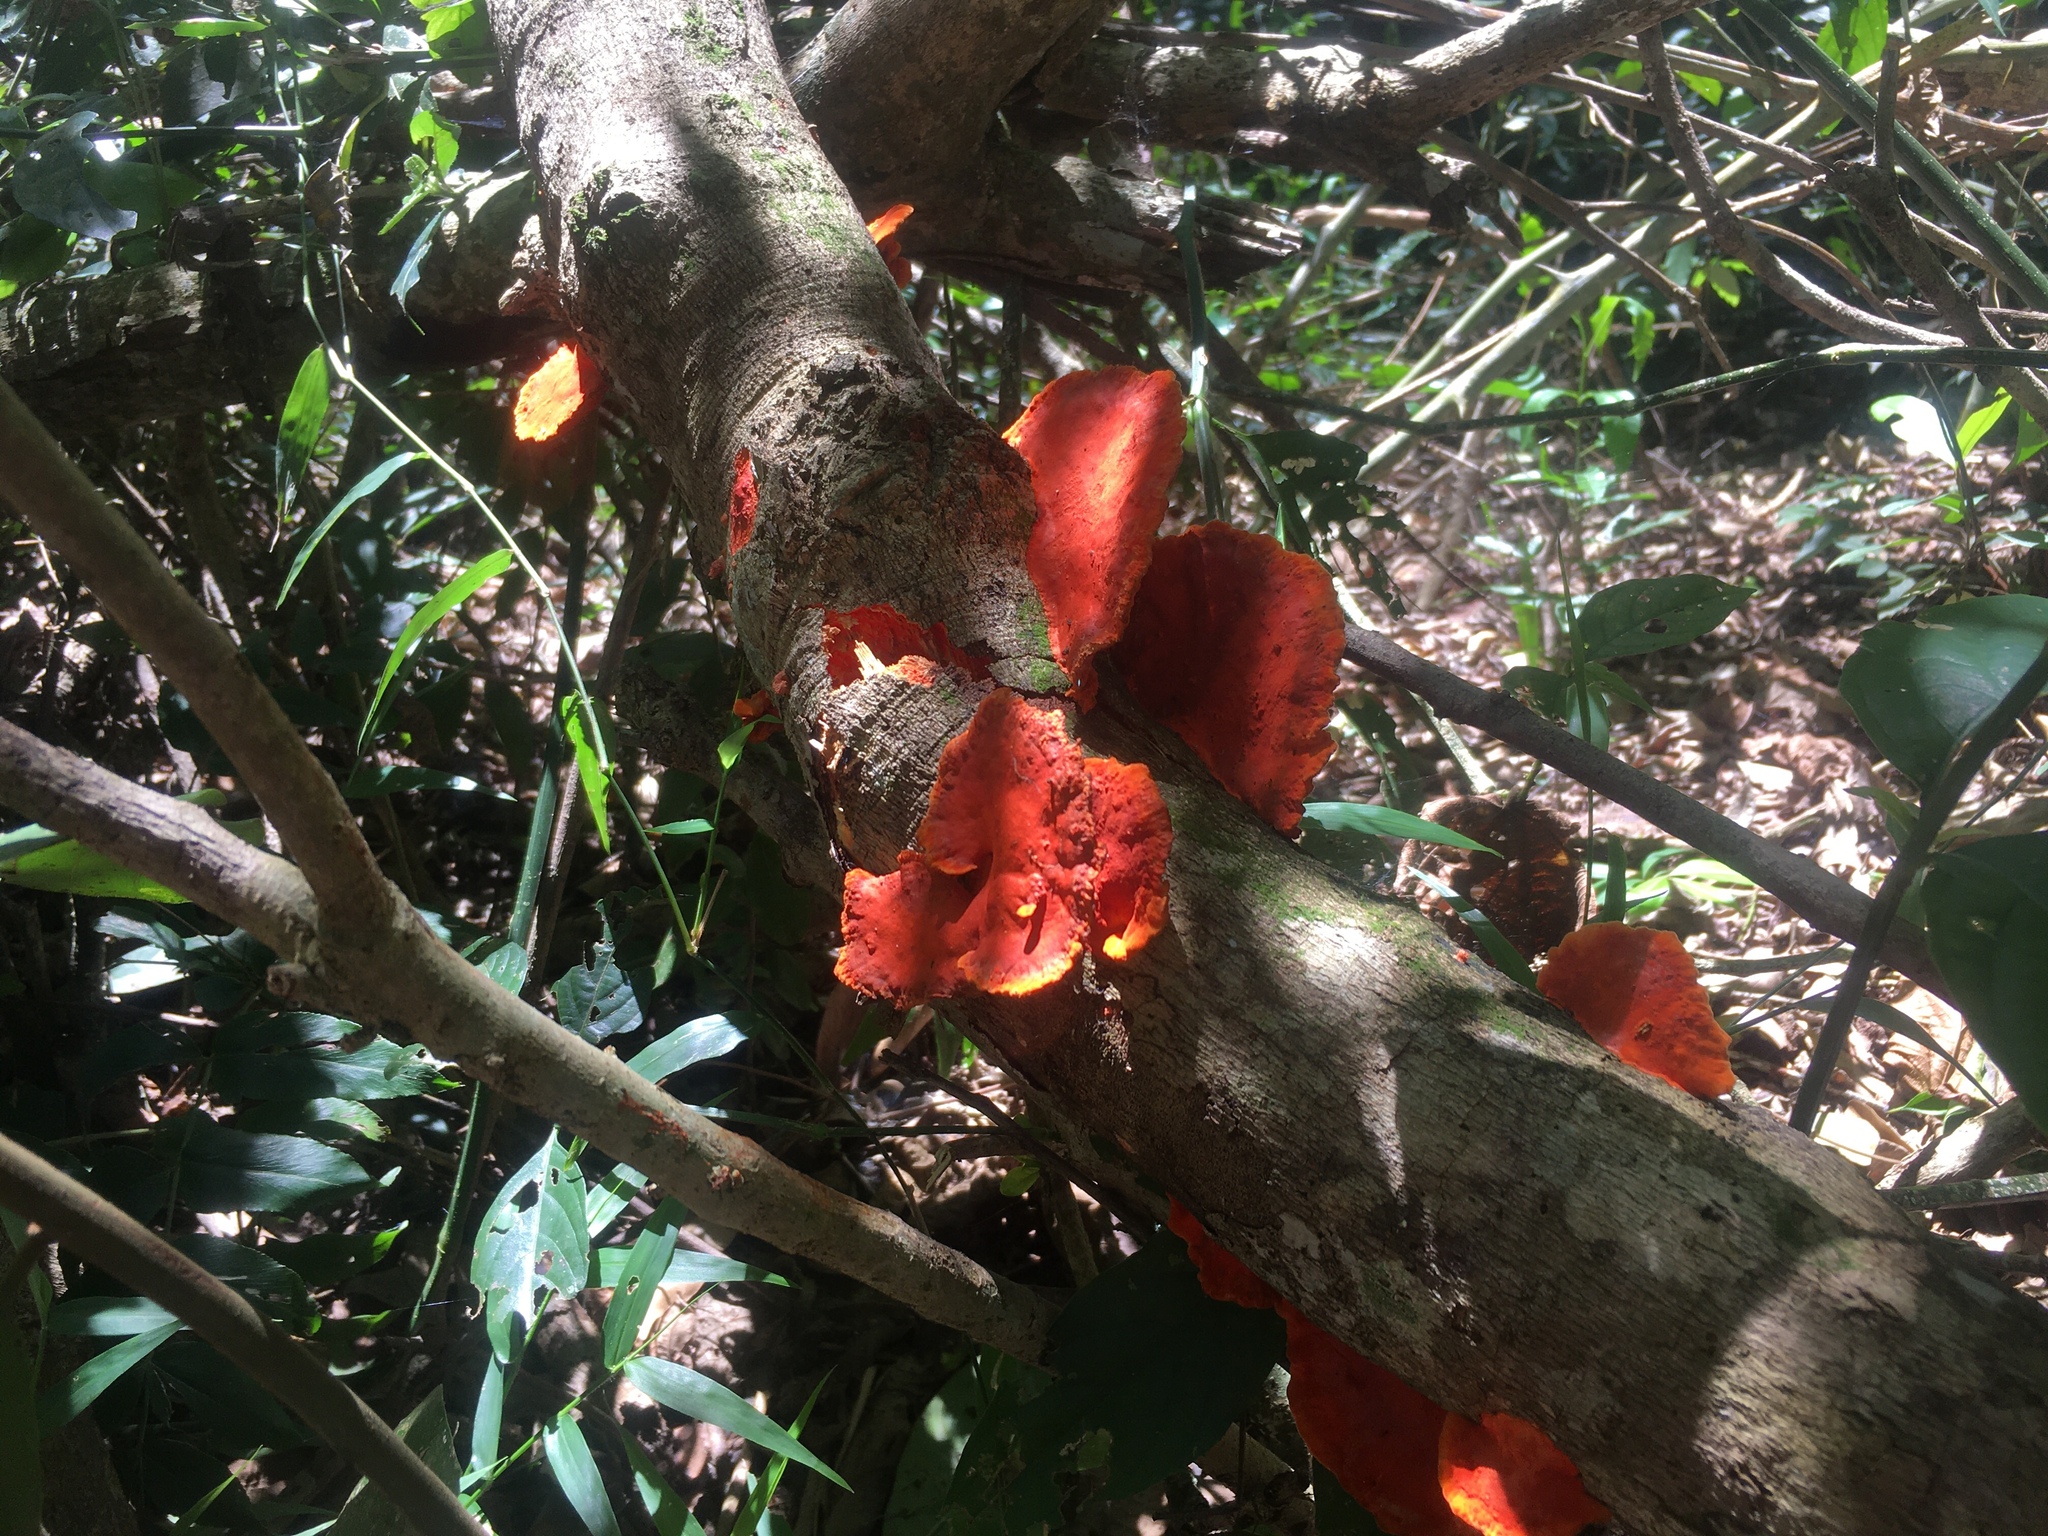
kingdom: Fungi
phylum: Basidiomycota
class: Agaricomycetes
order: Polyporales
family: Polyporaceae
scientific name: Polyporaceae
